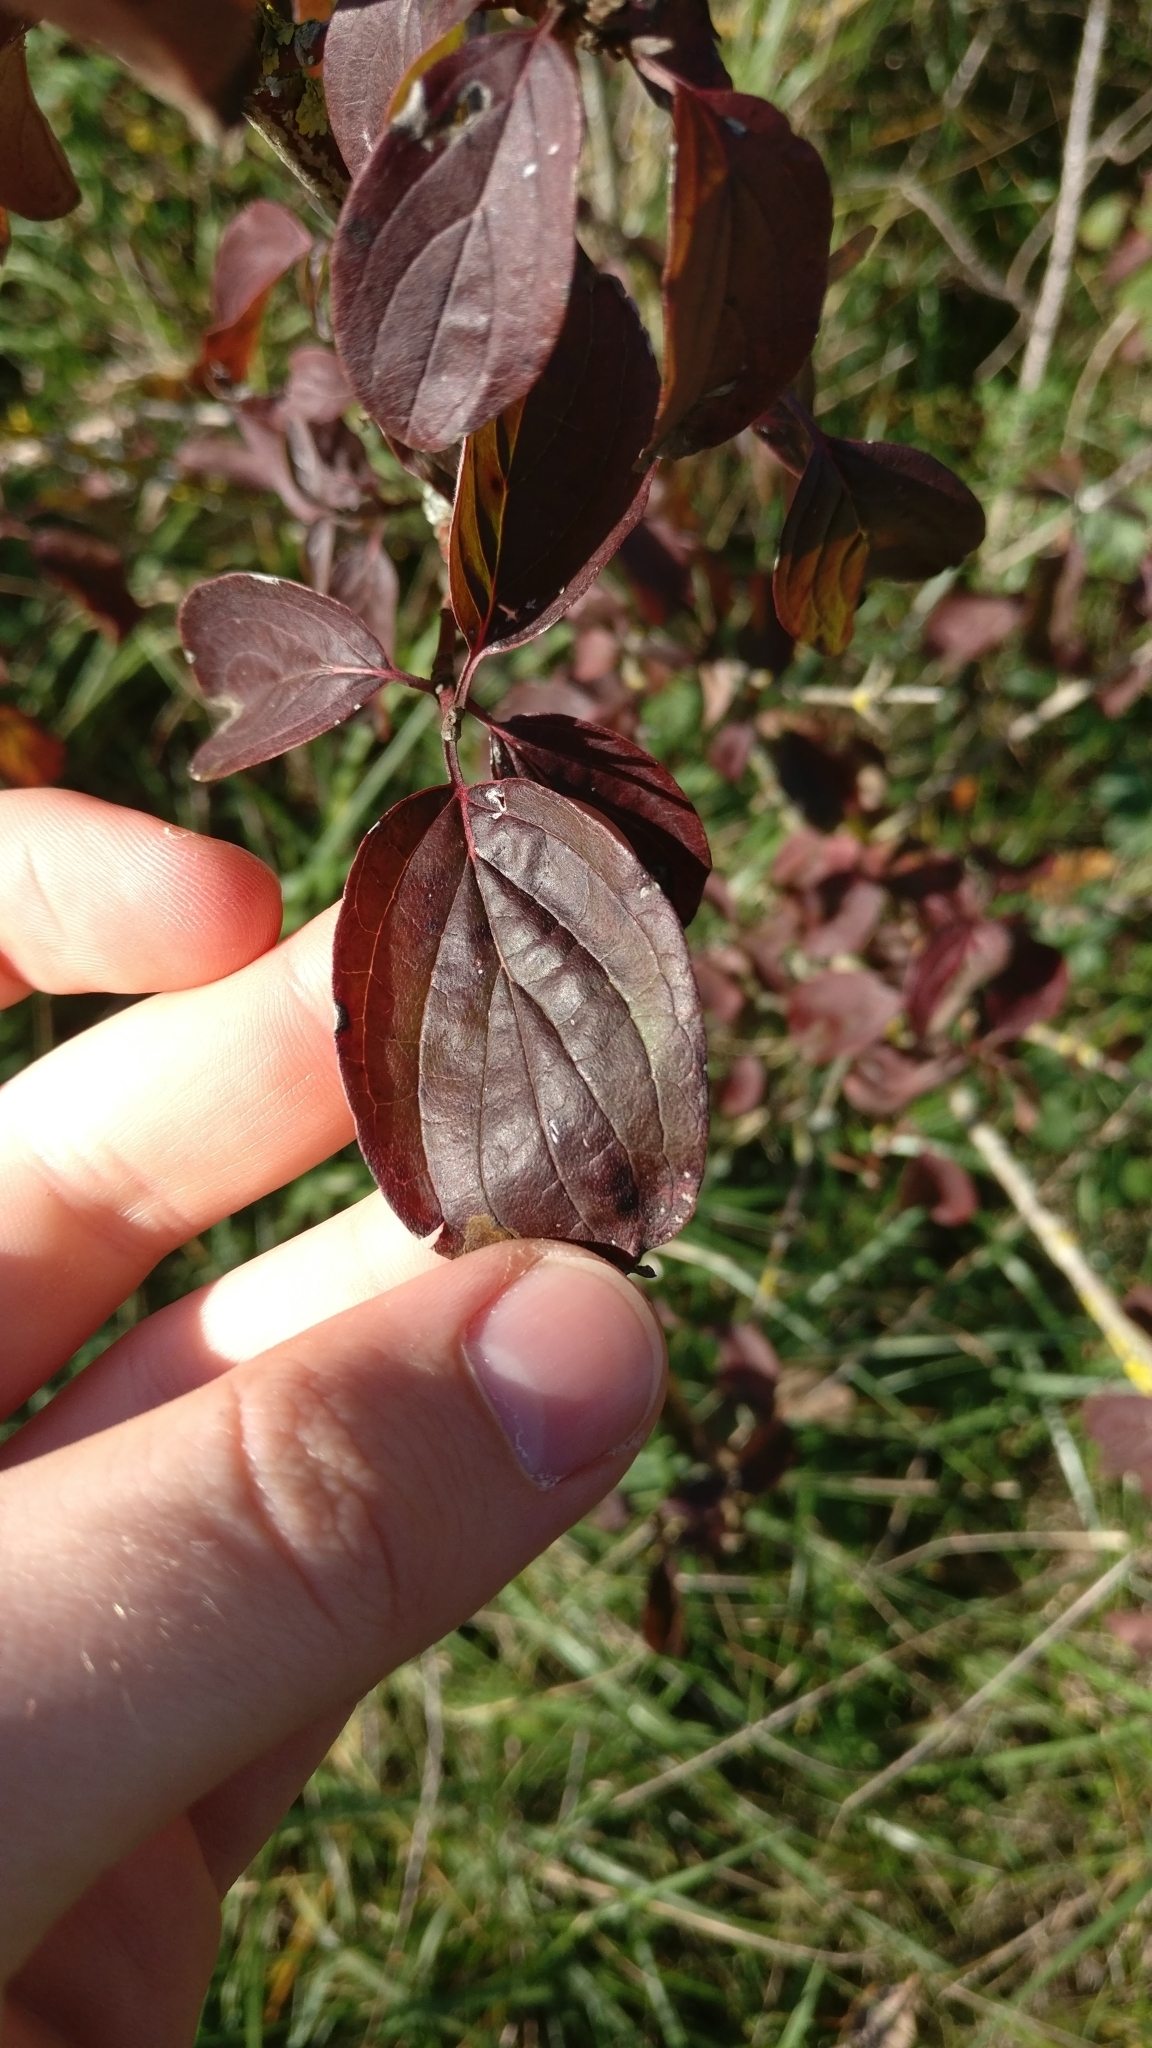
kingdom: Plantae
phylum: Tracheophyta
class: Magnoliopsida
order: Cornales
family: Cornaceae
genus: Cornus
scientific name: Cornus sanguinea
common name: Dogwood
